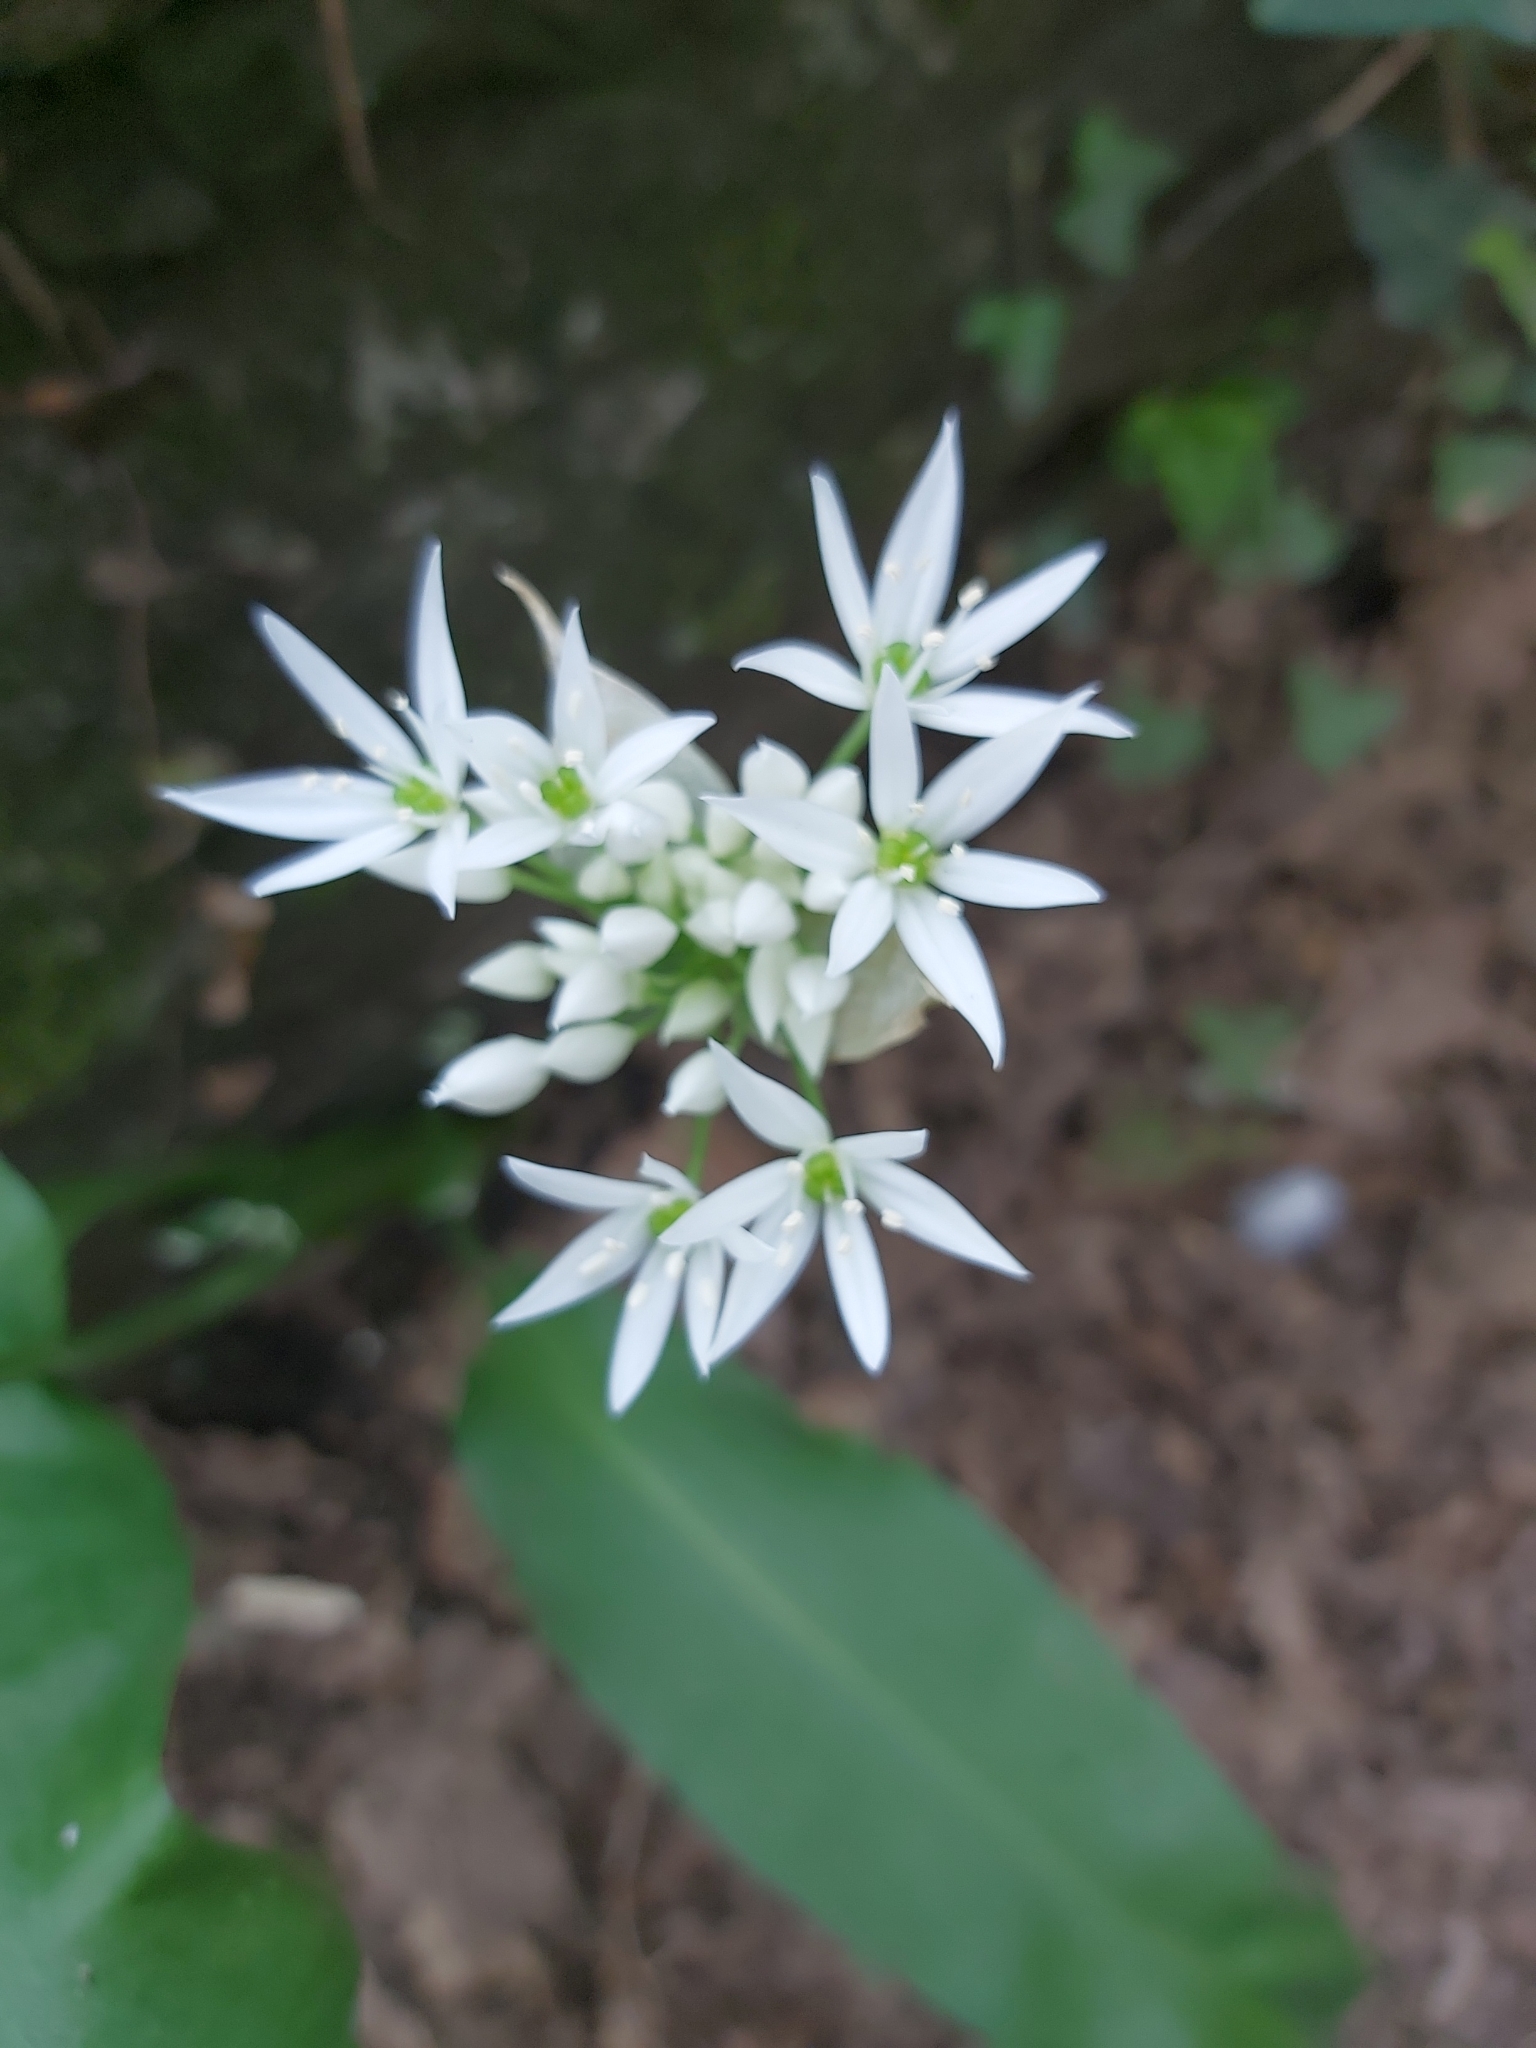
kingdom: Plantae
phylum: Tracheophyta
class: Liliopsida
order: Asparagales
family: Amaryllidaceae
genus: Allium
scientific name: Allium ursinum
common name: Ramsons
